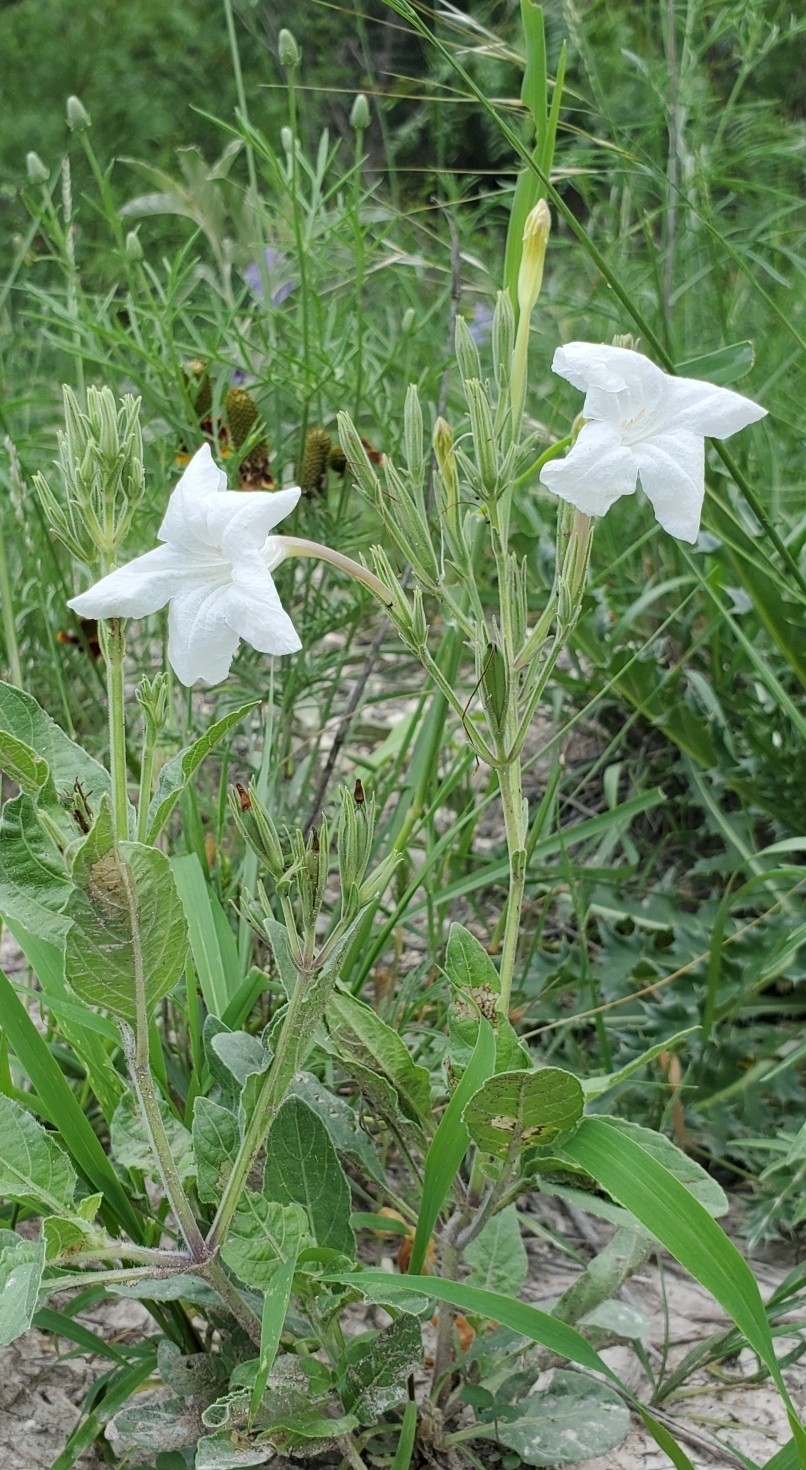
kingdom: Plantae
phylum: Tracheophyta
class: Magnoliopsida
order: Lamiales
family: Acanthaceae
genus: Ruellia
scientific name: Ruellia metziae
